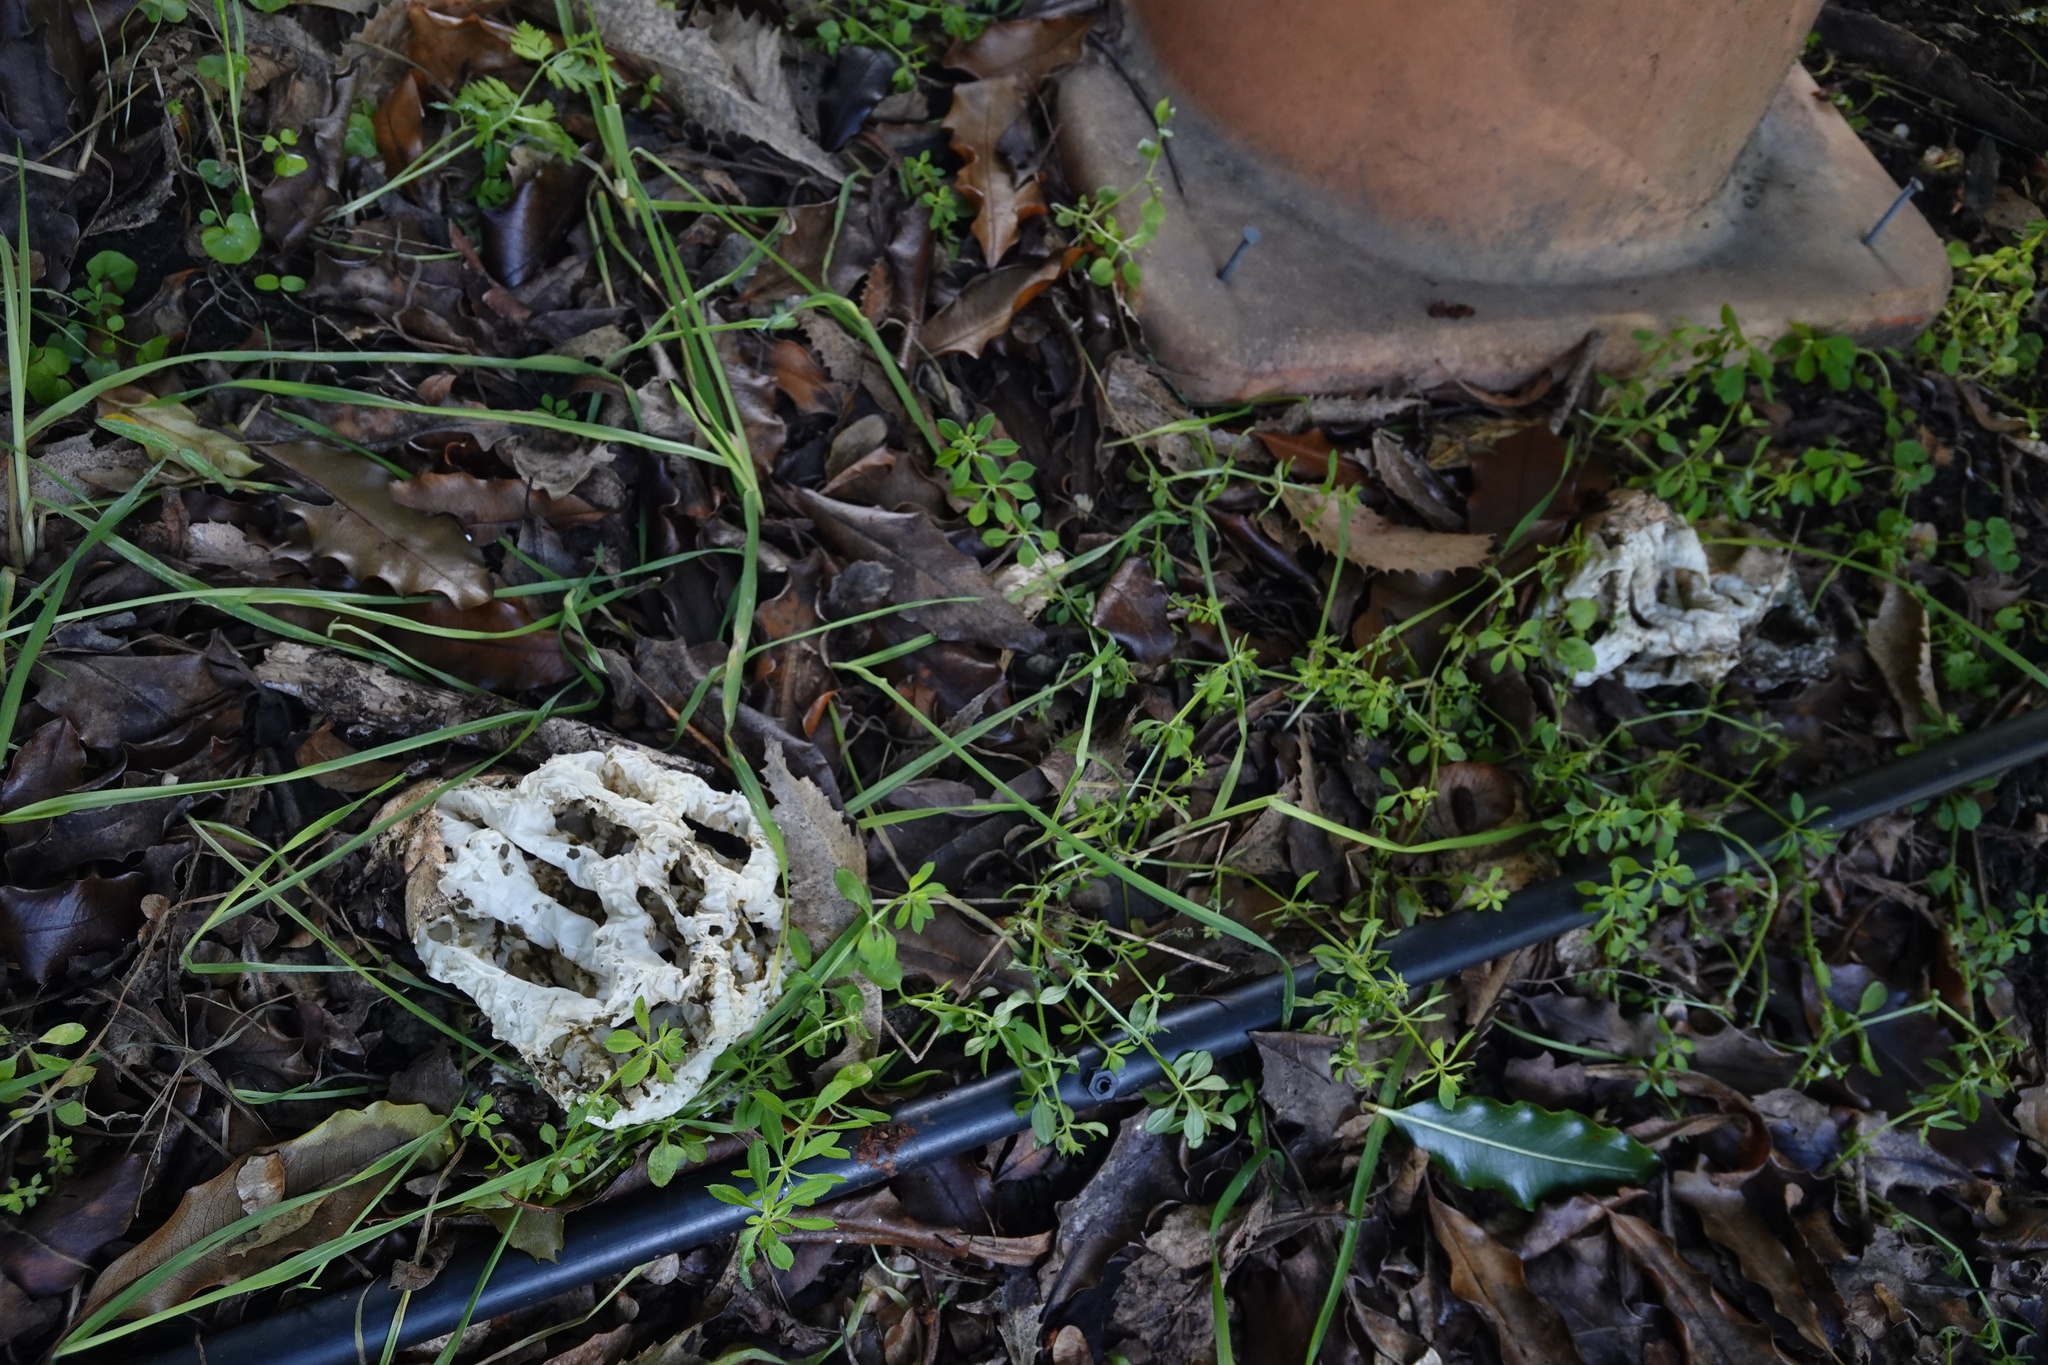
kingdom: Fungi
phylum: Basidiomycota
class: Agaricomycetes
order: Phallales
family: Phallaceae
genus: Ileodictyon
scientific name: Ileodictyon cibarium
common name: Basket fungus
